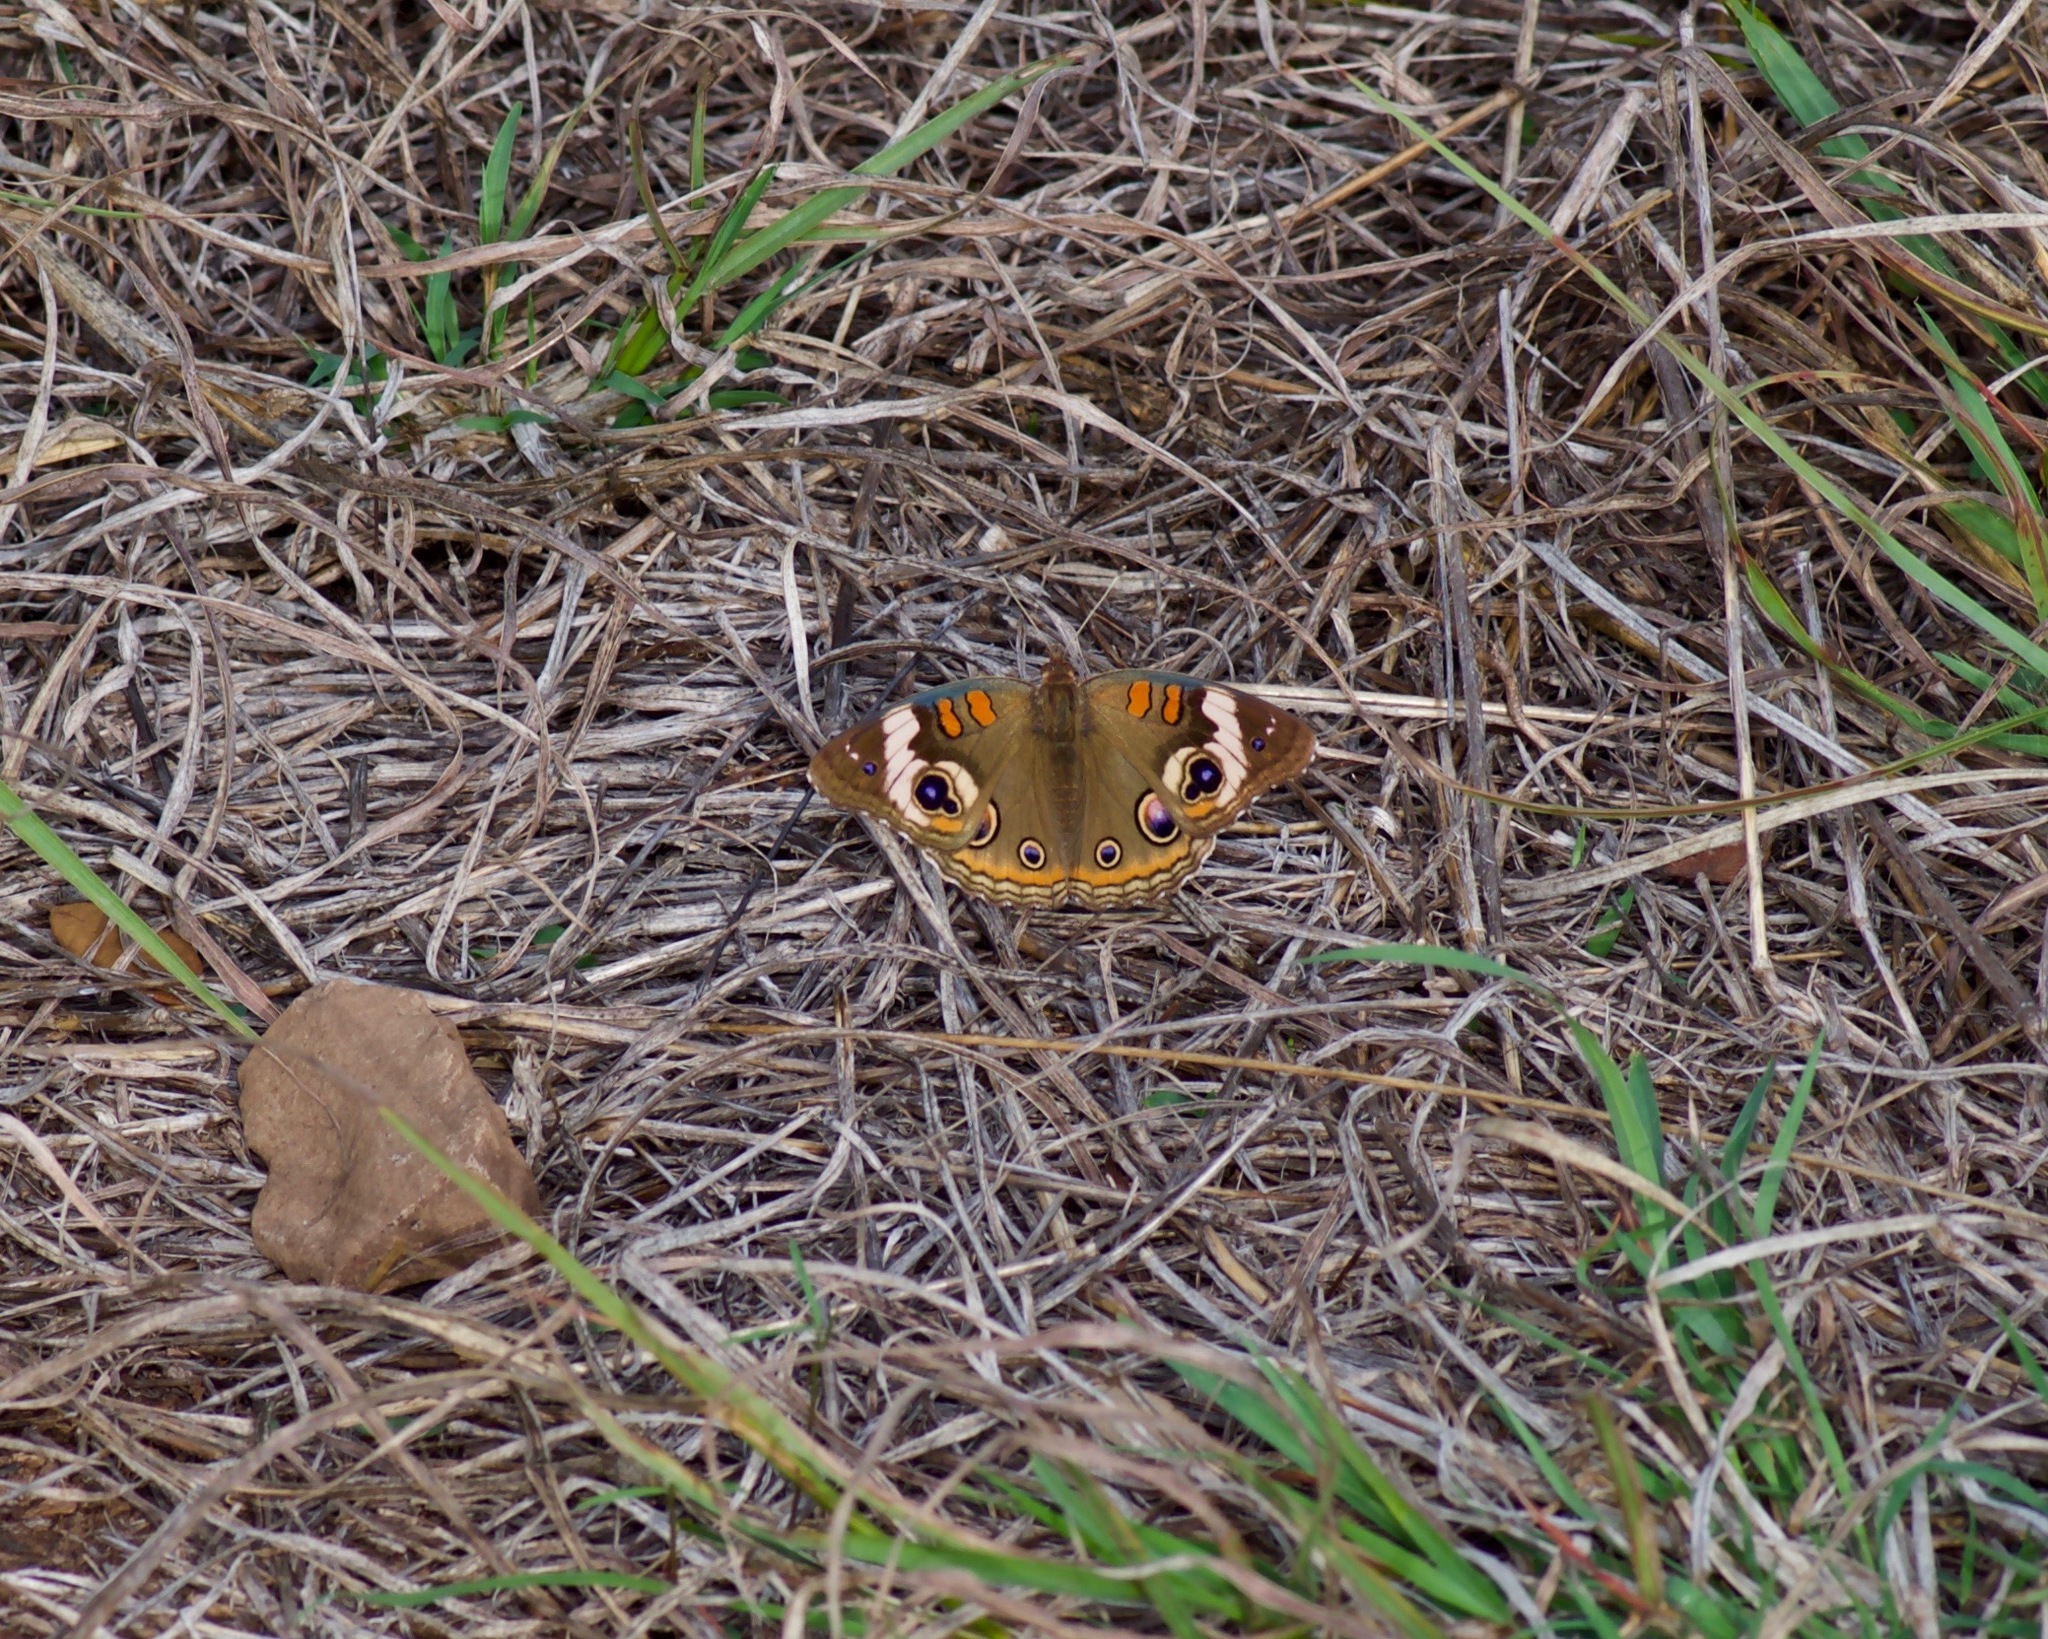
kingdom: Animalia
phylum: Arthropoda
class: Insecta
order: Lepidoptera
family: Nymphalidae
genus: Junonia
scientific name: Junonia coenia
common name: Common buckeye
